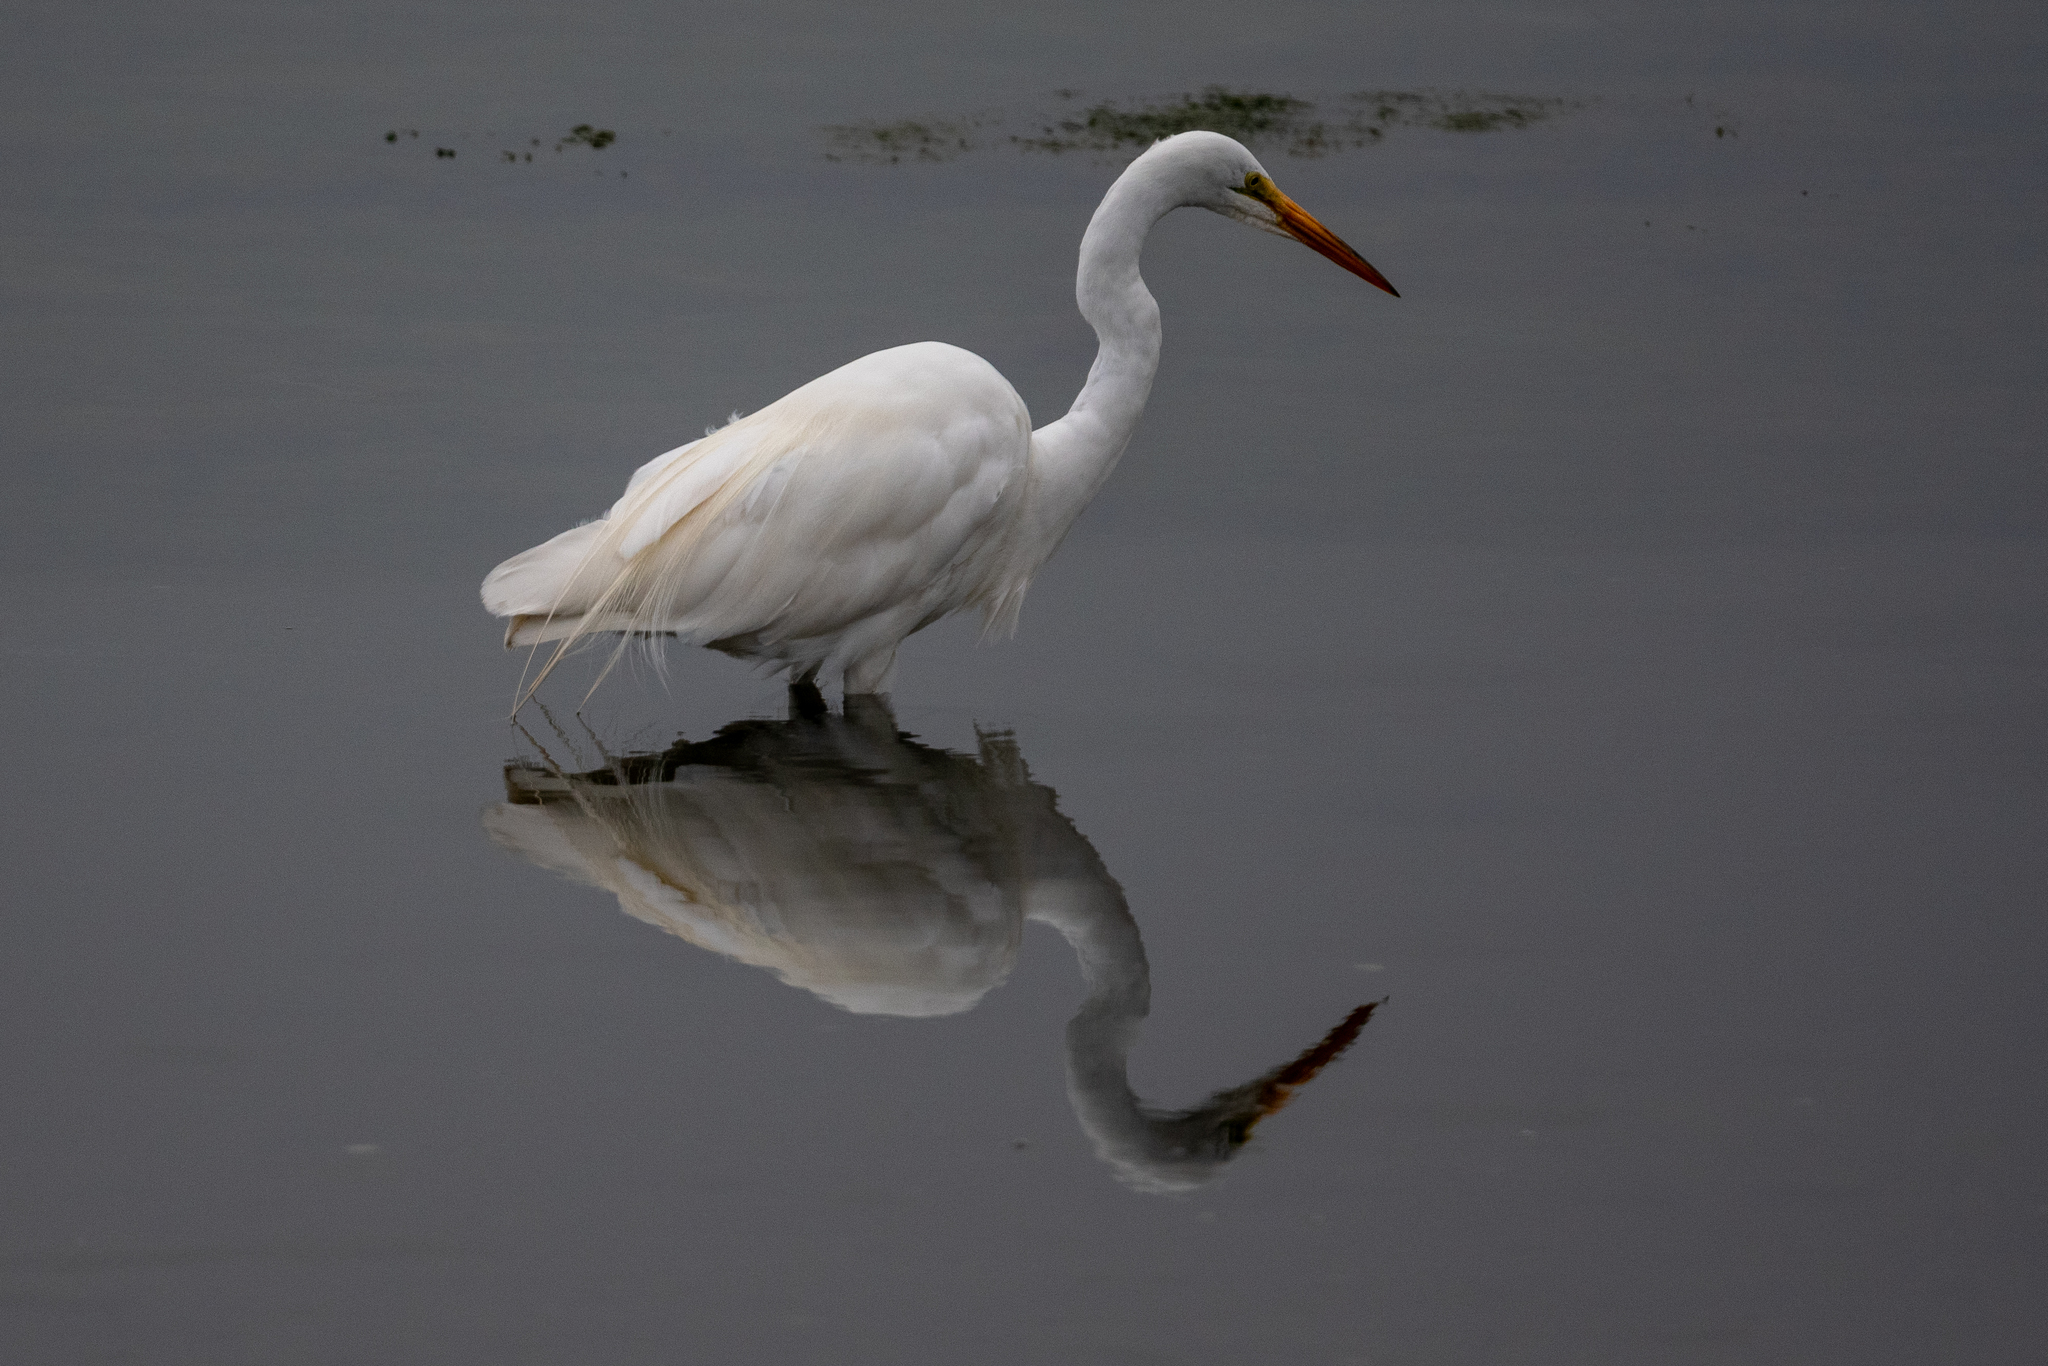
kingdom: Animalia
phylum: Chordata
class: Aves
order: Pelecaniformes
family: Ardeidae
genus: Ardea
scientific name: Ardea alba
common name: Great egret
